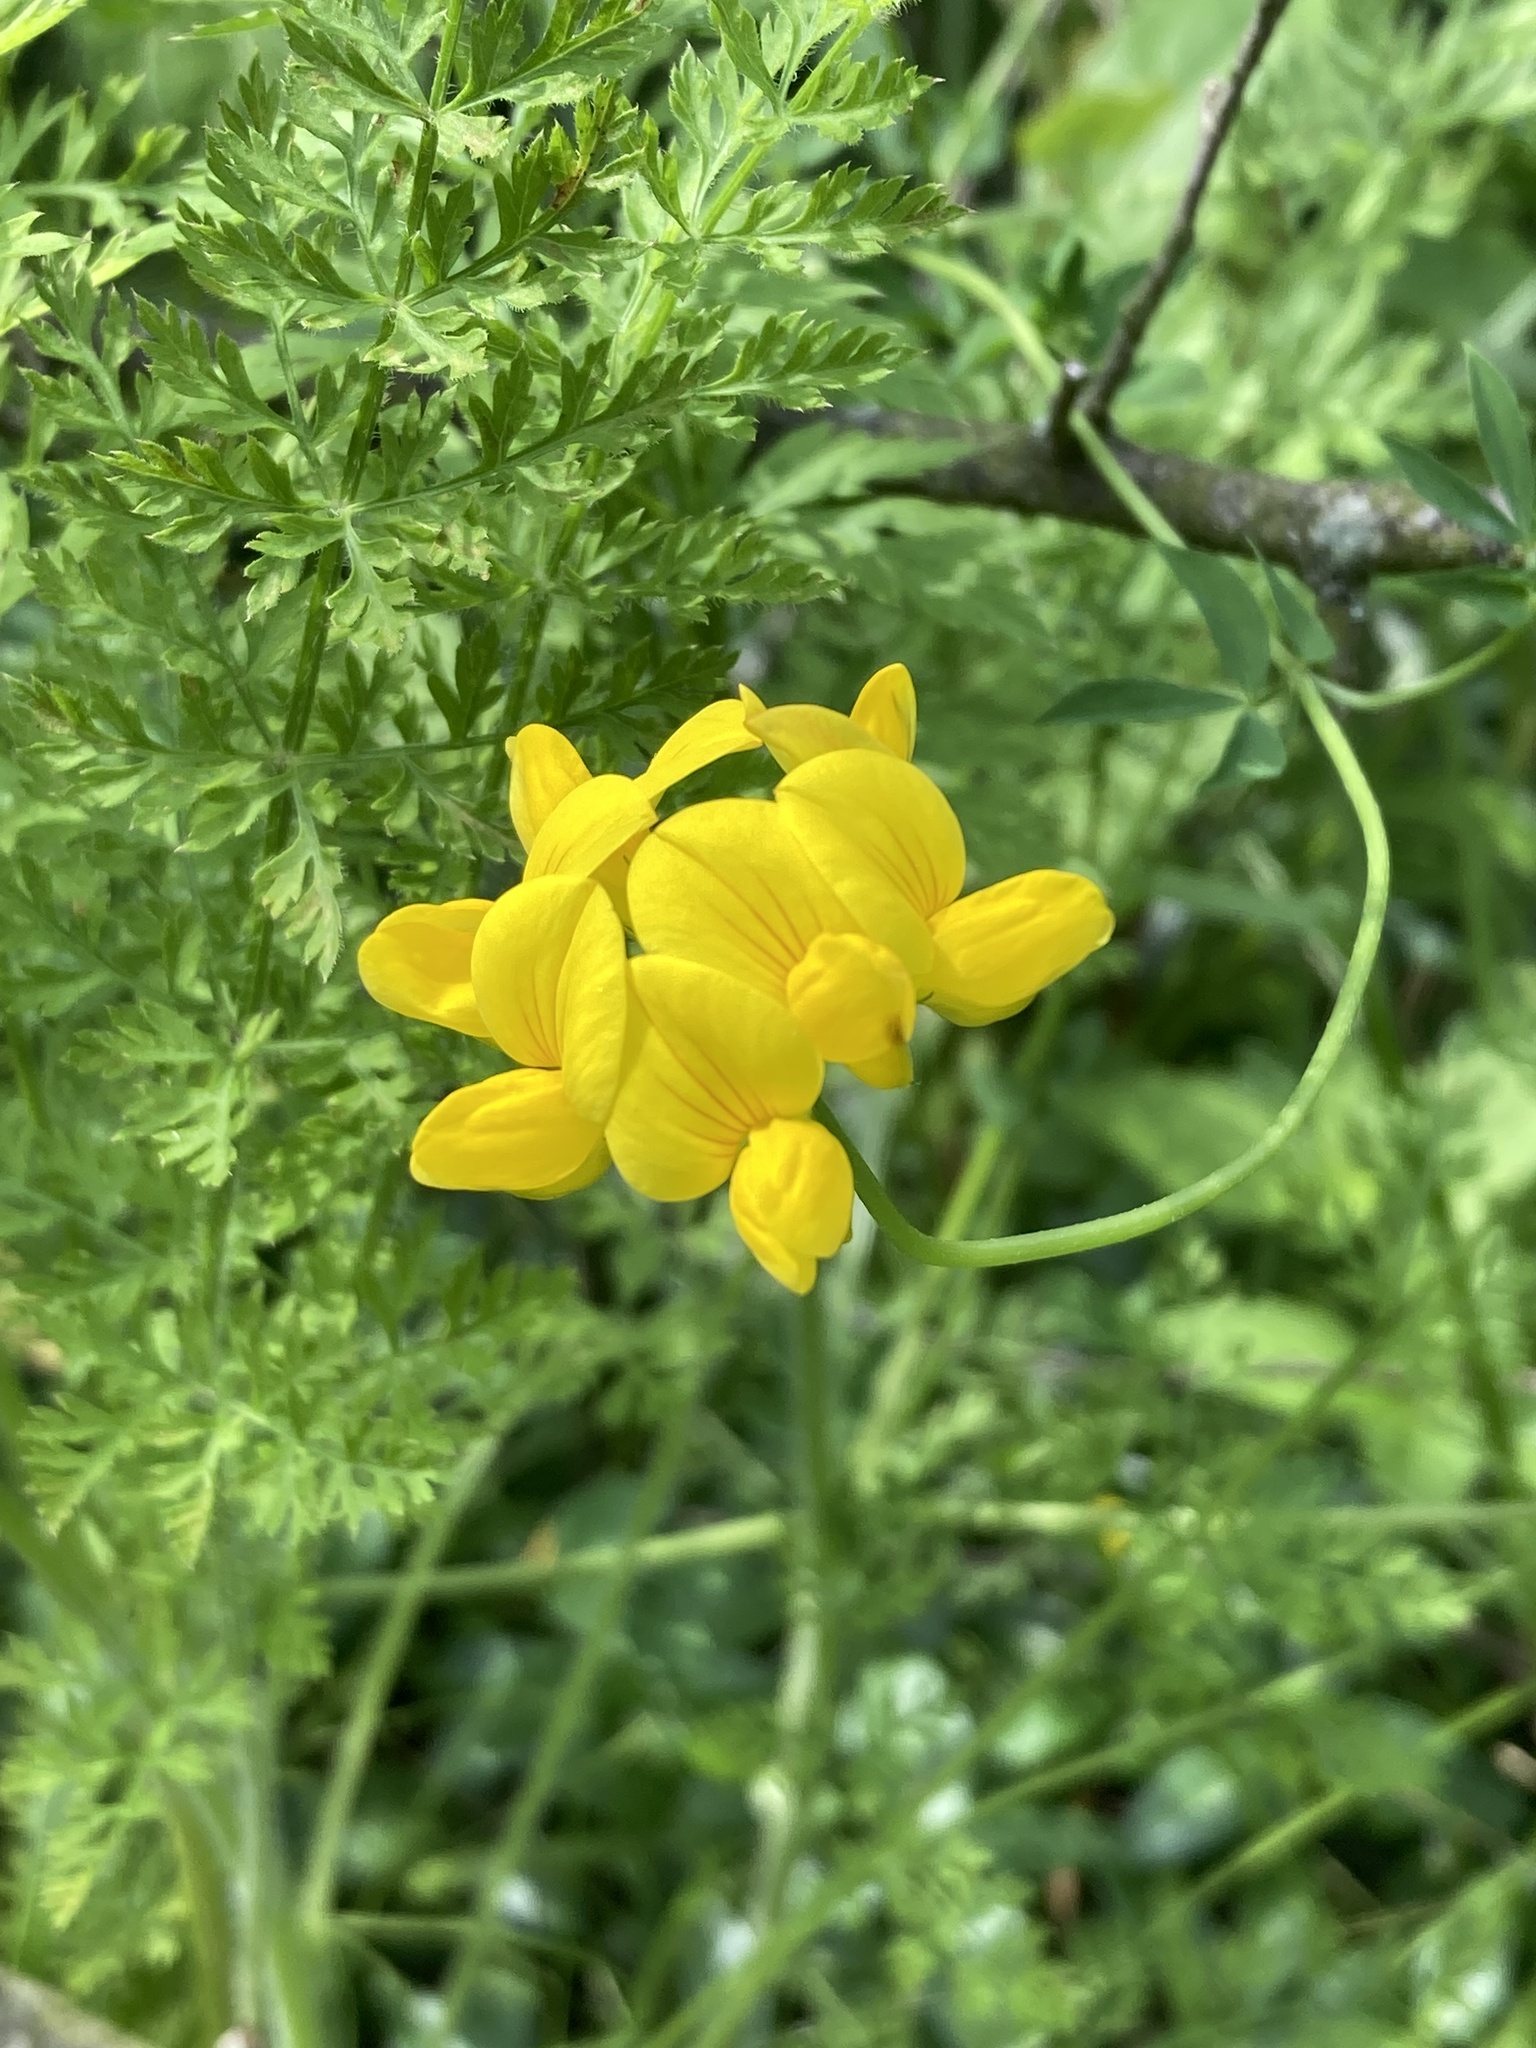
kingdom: Plantae
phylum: Tracheophyta
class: Magnoliopsida
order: Fabales
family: Fabaceae
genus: Lotus
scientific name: Lotus corniculatus
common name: Common bird's-foot-trefoil
